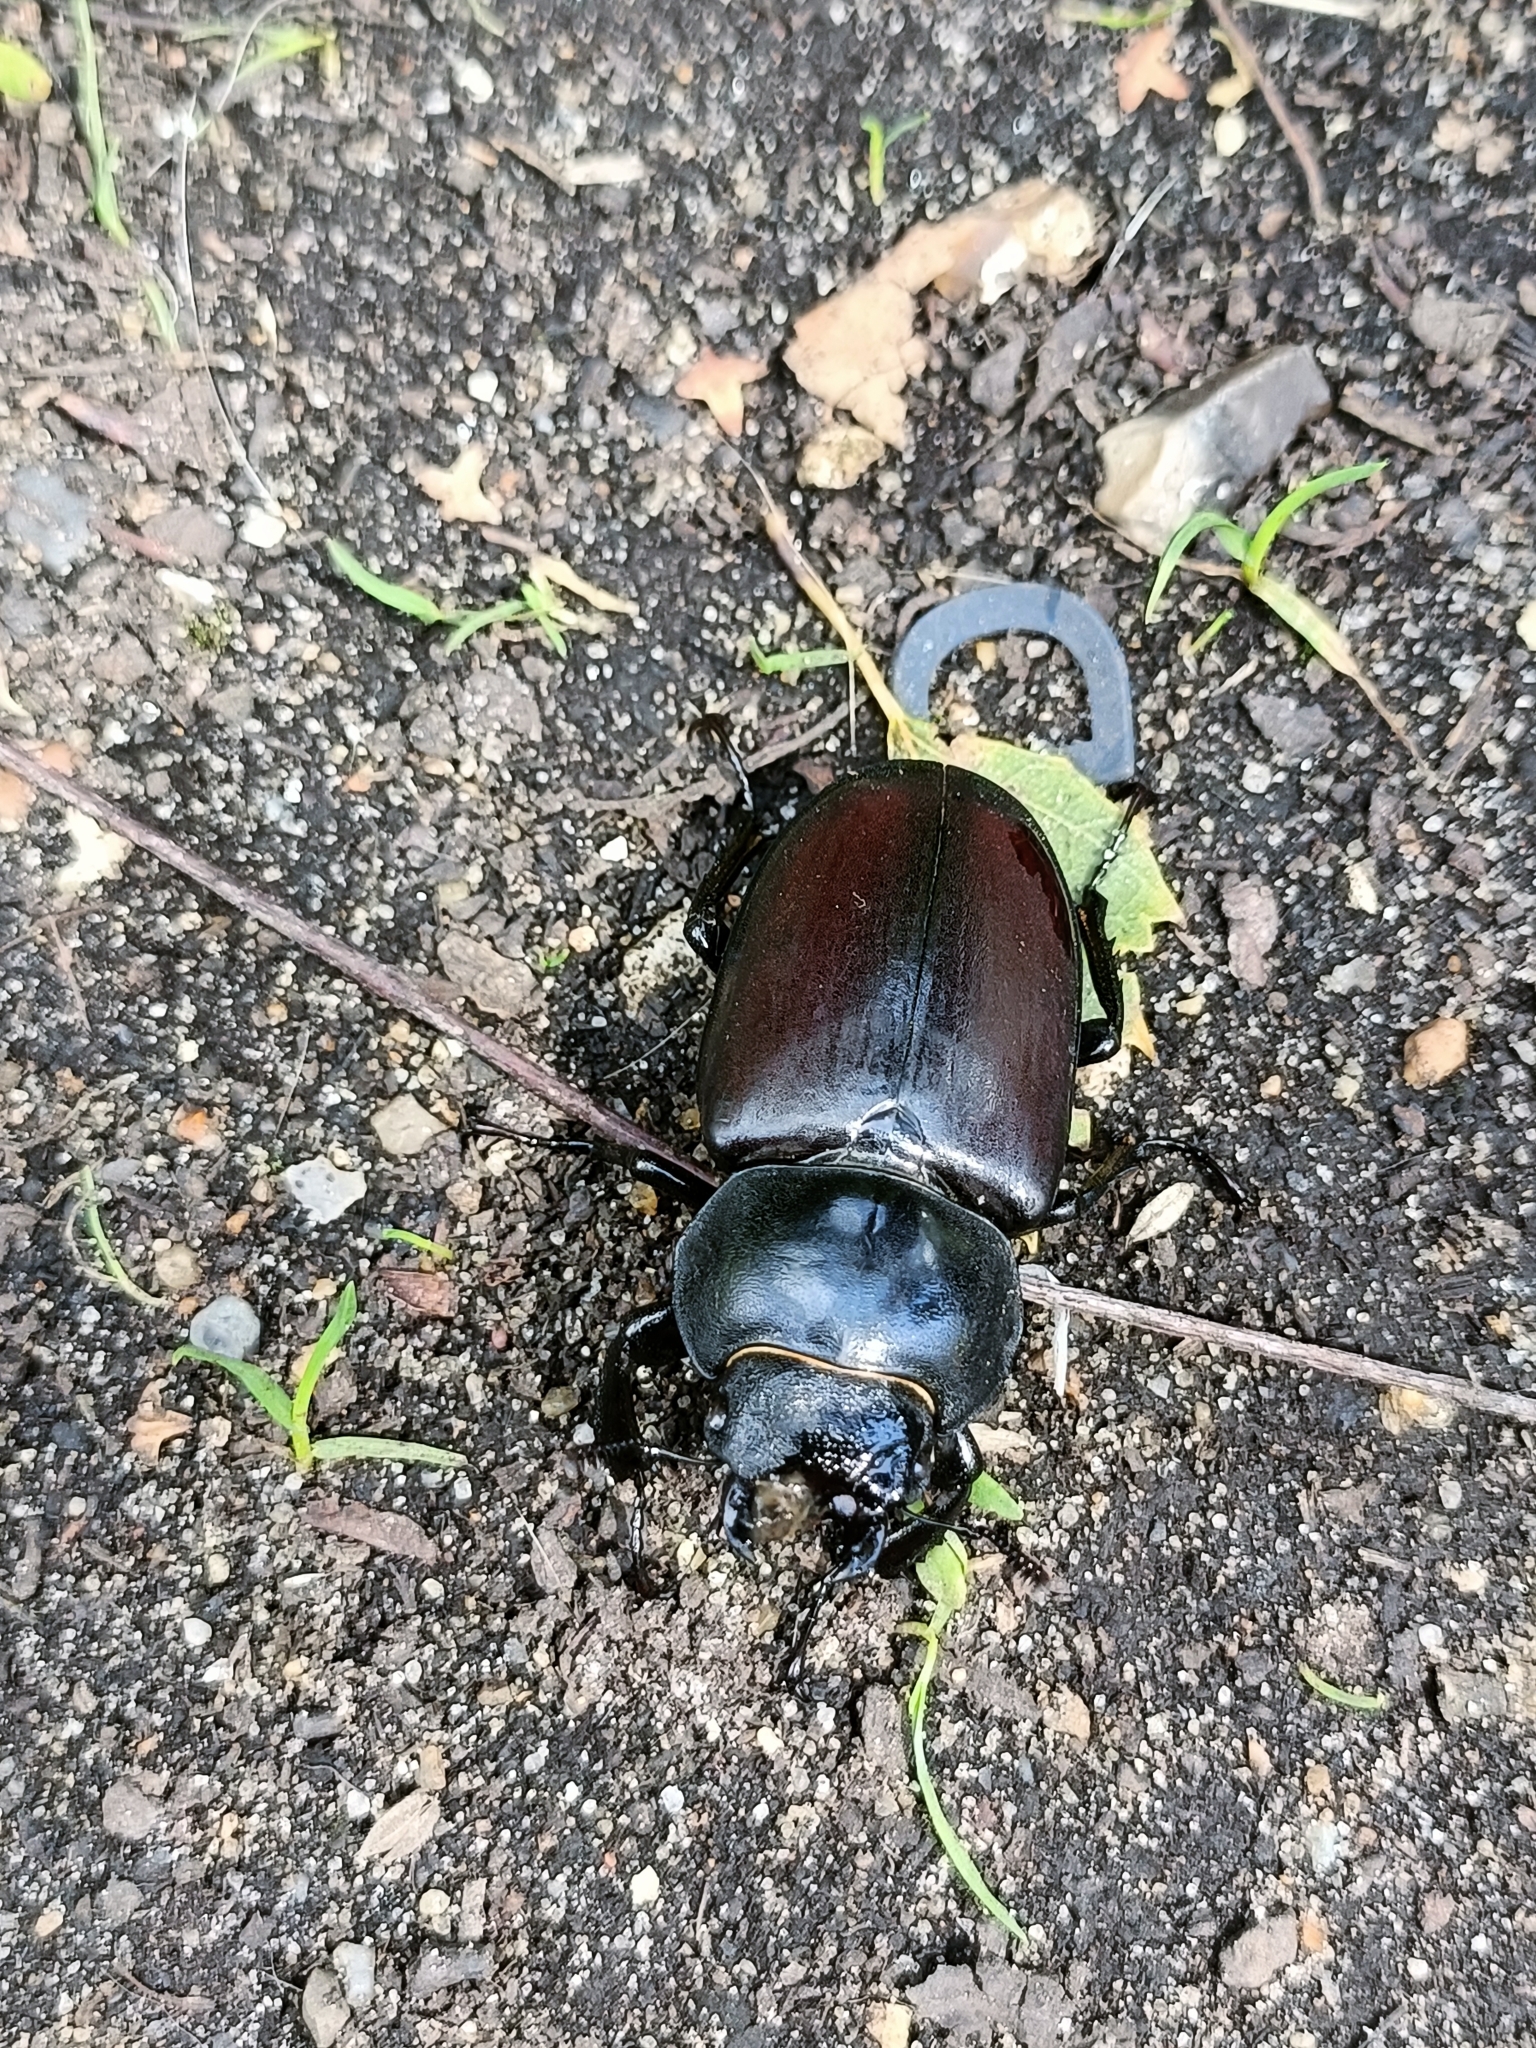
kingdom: Animalia
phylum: Arthropoda
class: Insecta
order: Coleoptera
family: Lucanidae
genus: Lucanus
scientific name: Lucanus cervus
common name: Stag beetle
